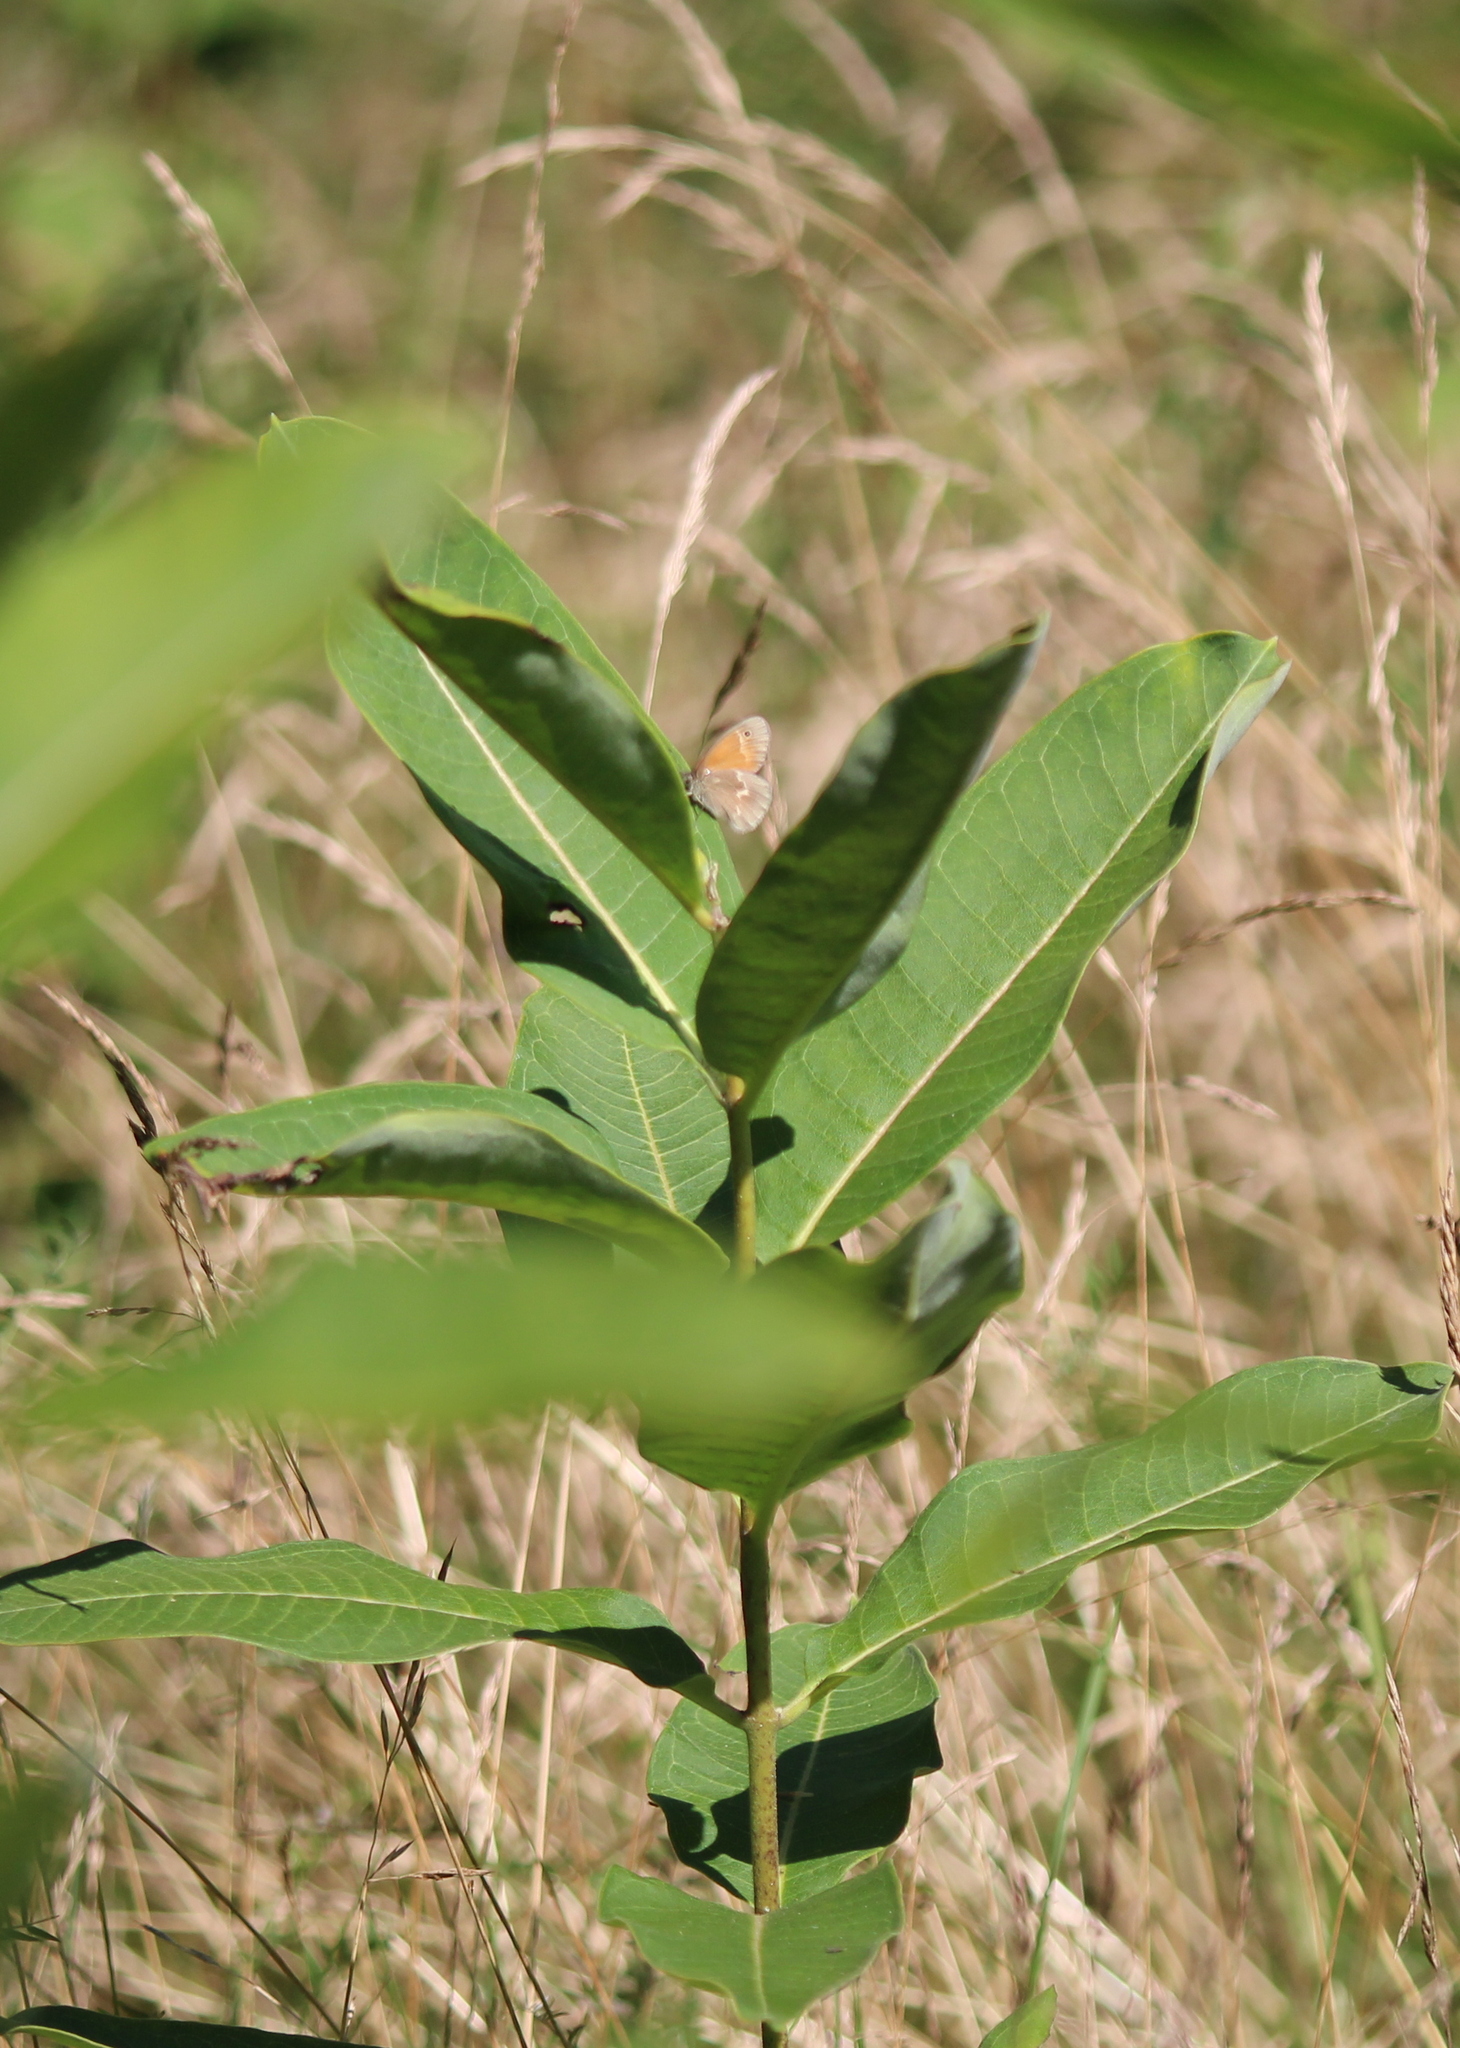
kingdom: Plantae
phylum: Tracheophyta
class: Magnoliopsida
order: Gentianales
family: Apocynaceae
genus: Asclepias
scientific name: Asclepias syriaca
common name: Common milkweed
